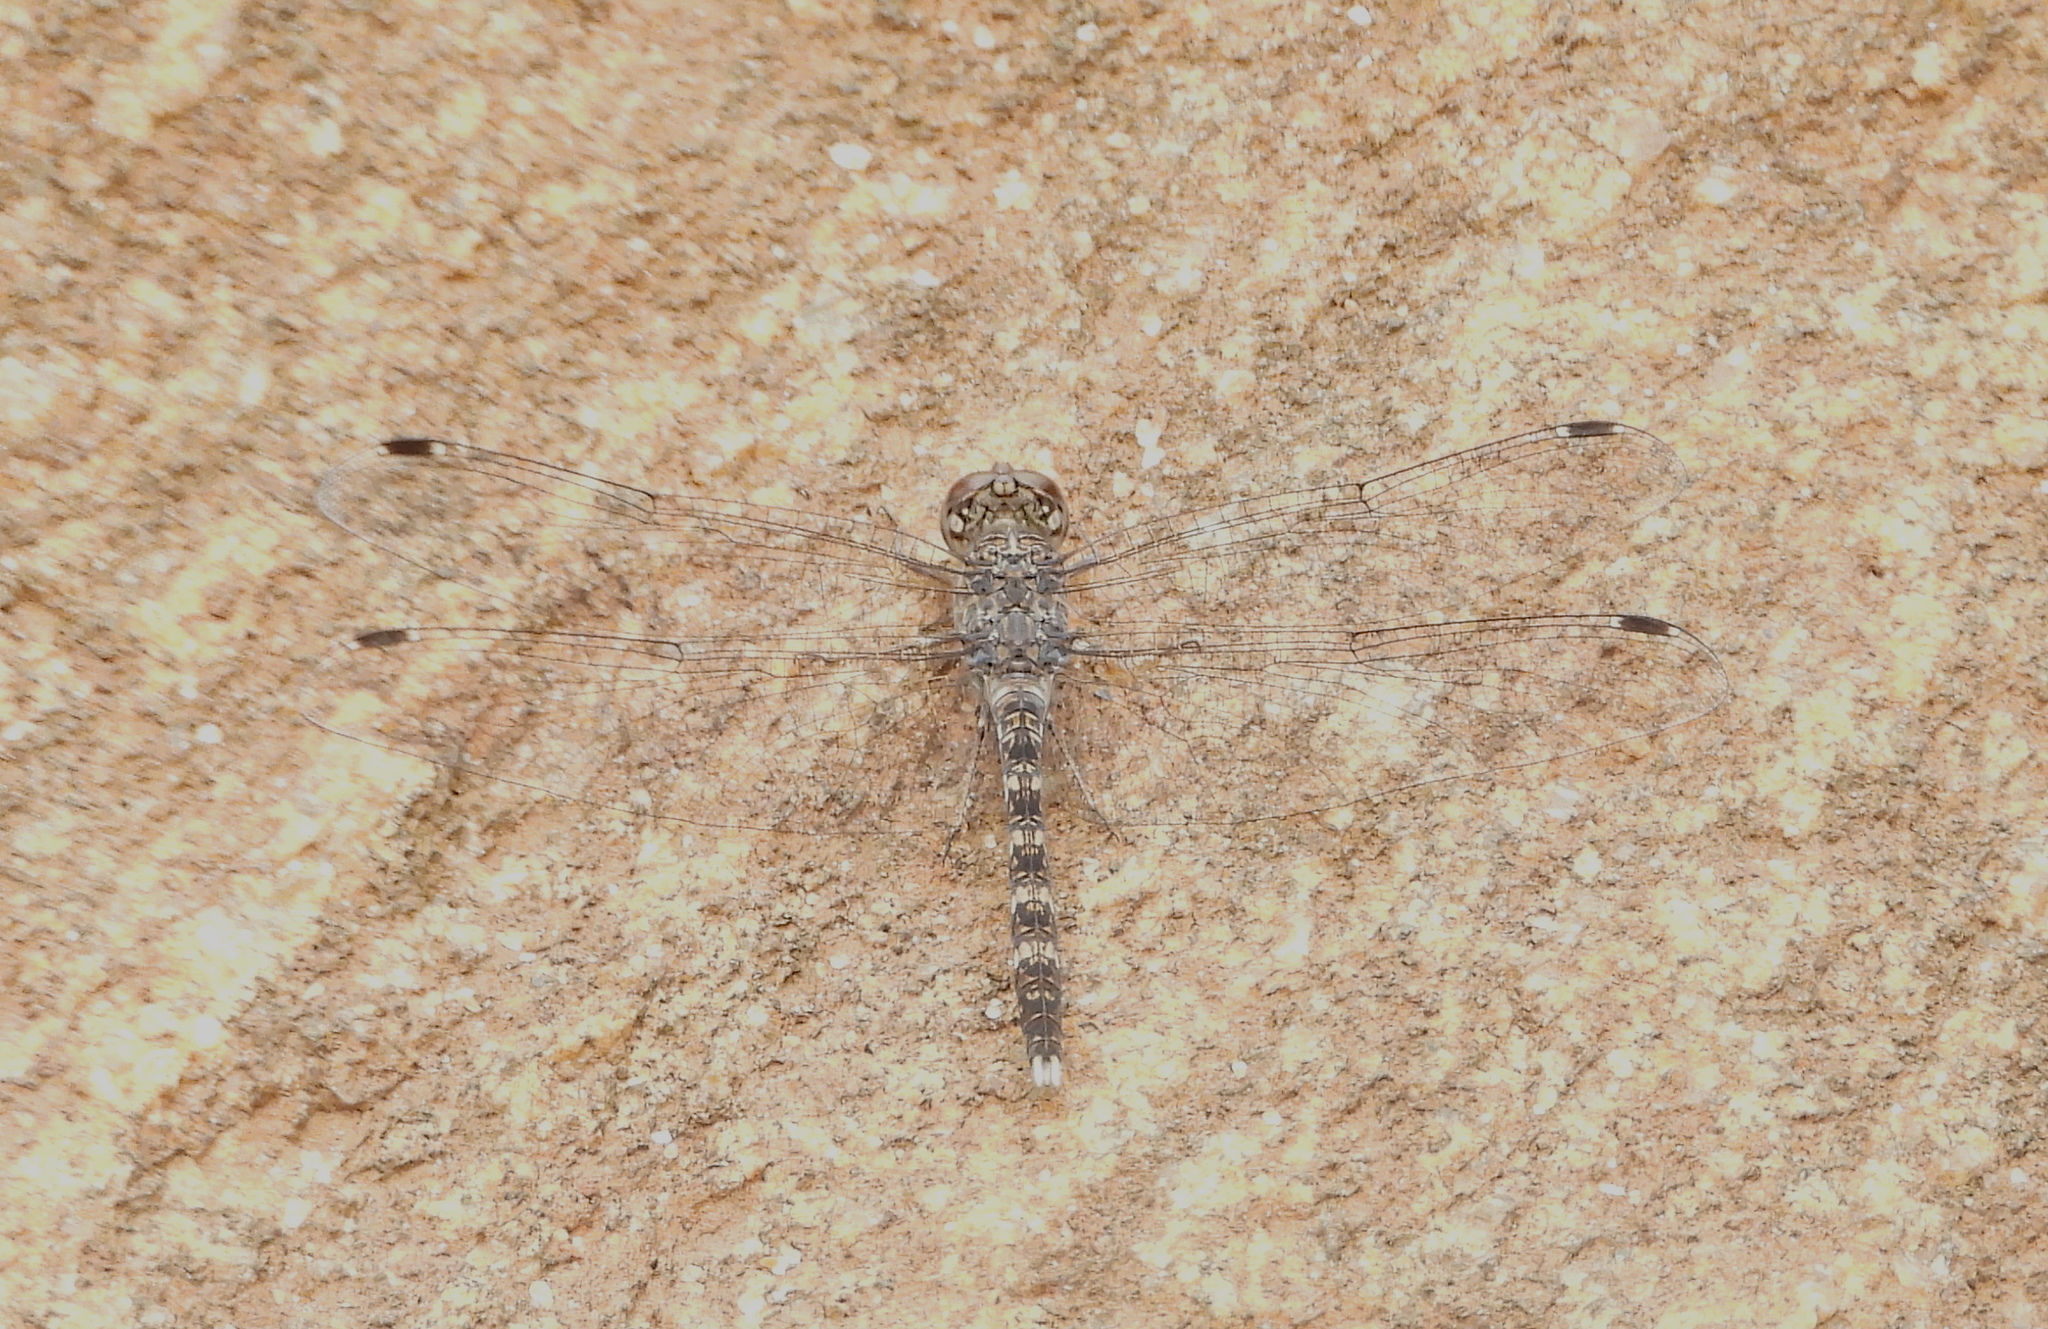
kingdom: Animalia
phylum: Arthropoda
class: Insecta
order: Odonata
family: Libellulidae
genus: Bradinopyga
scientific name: Bradinopyga geminata
